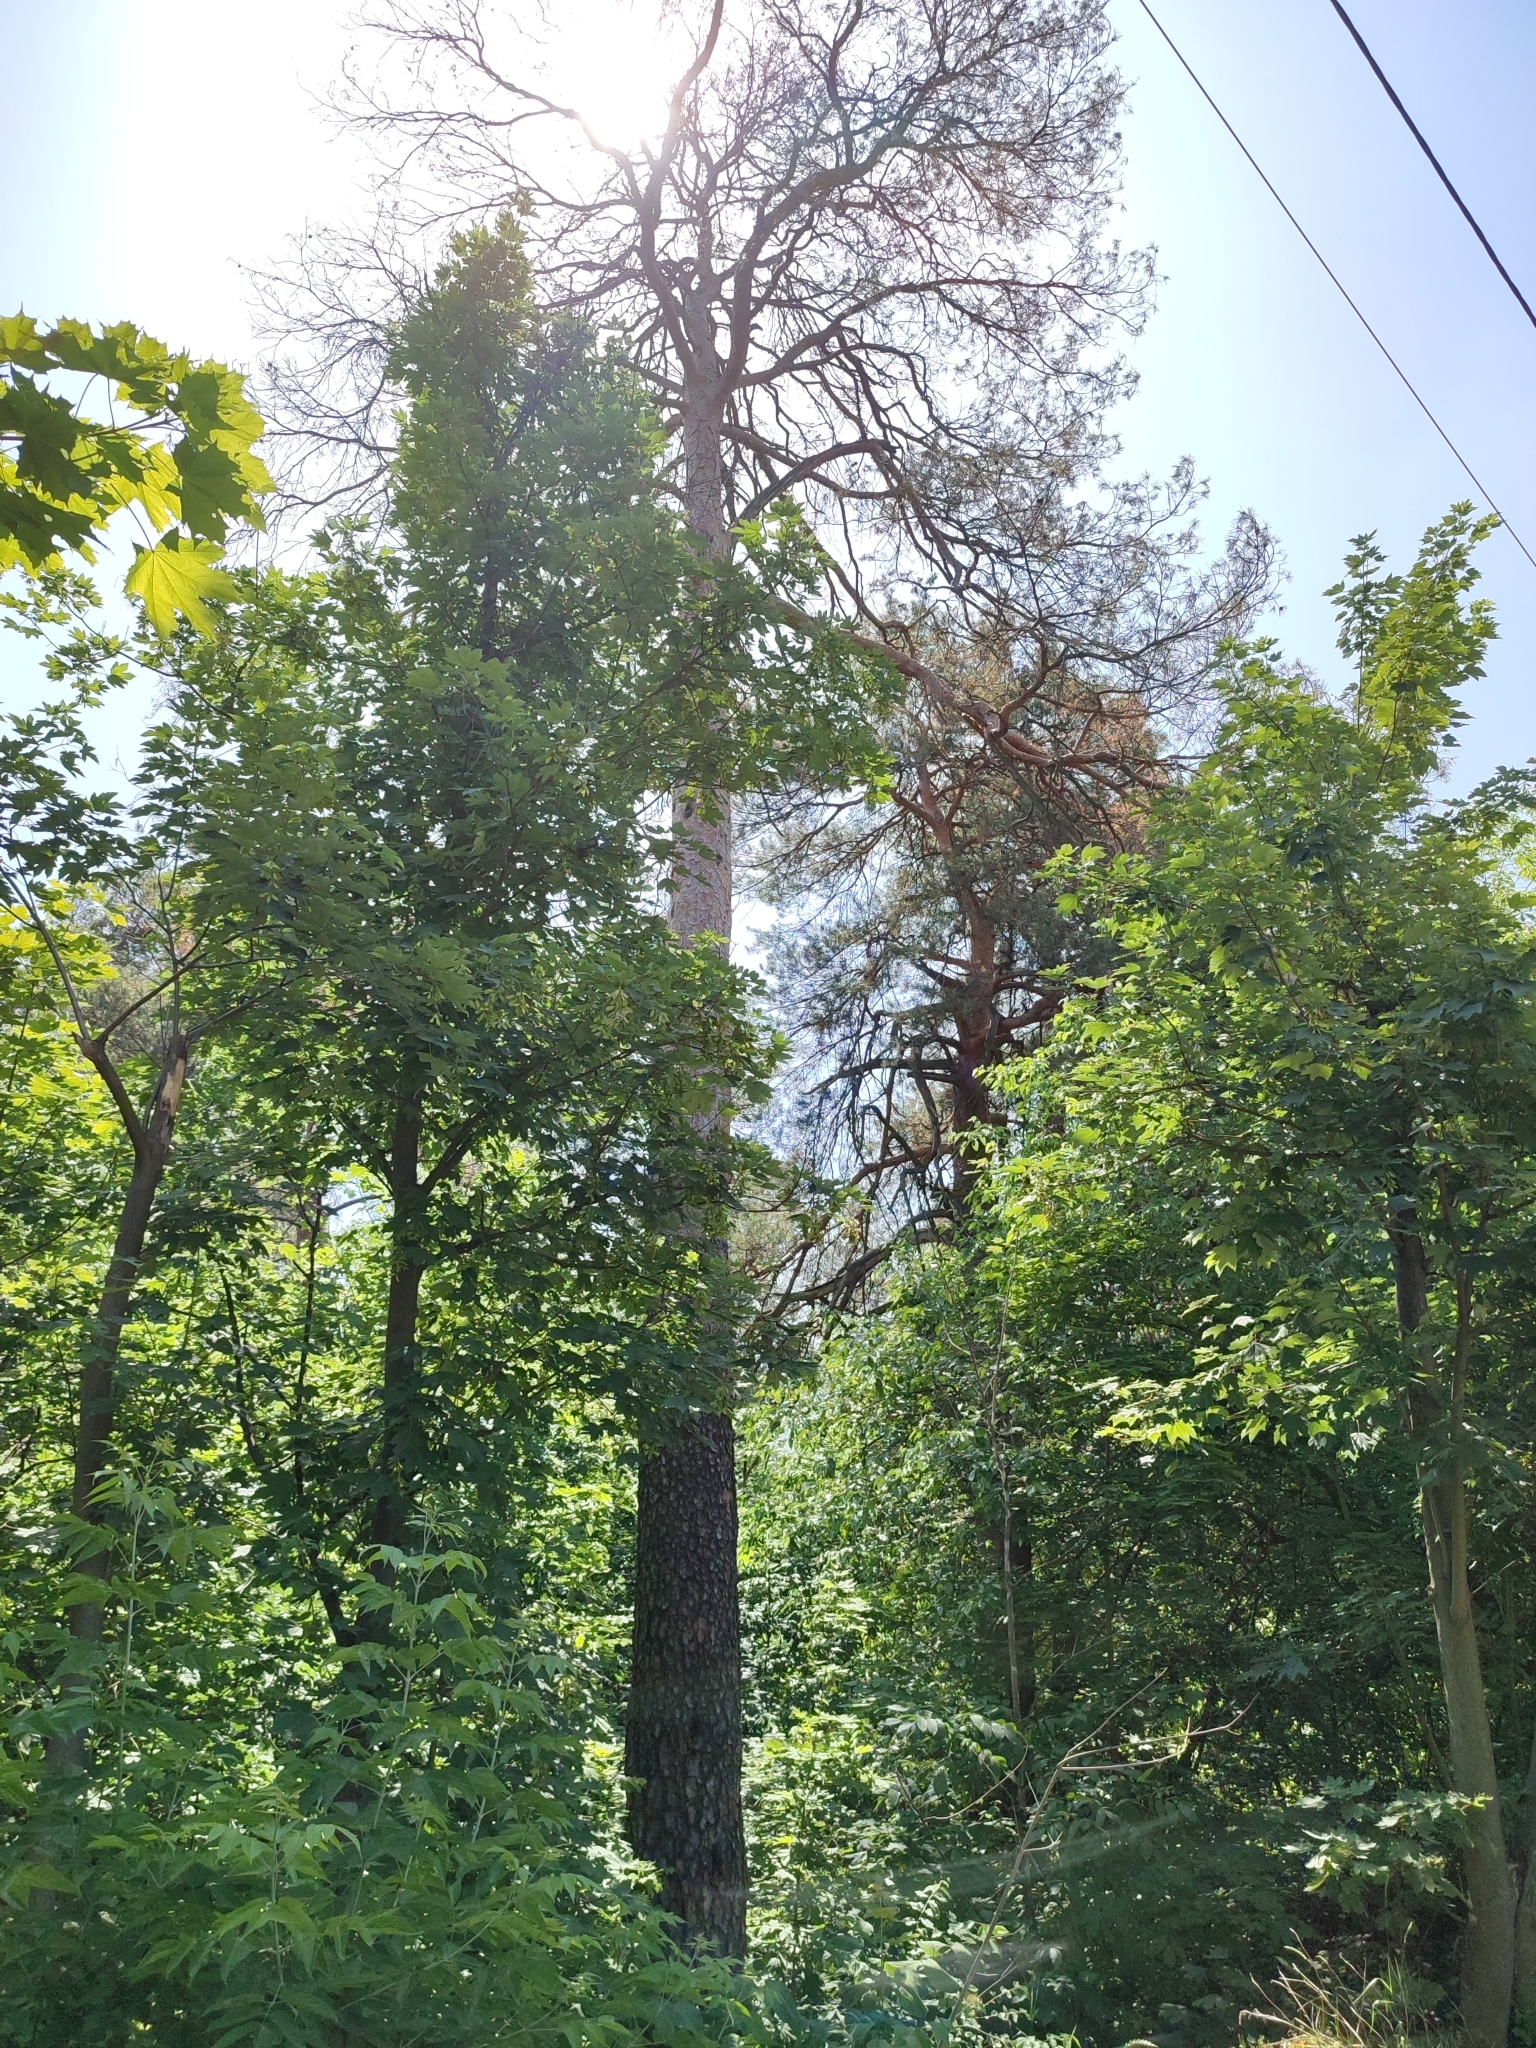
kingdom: Plantae
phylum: Tracheophyta
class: Pinopsida
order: Pinales
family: Pinaceae
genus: Pinus
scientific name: Pinus sylvestris
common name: Scots pine
